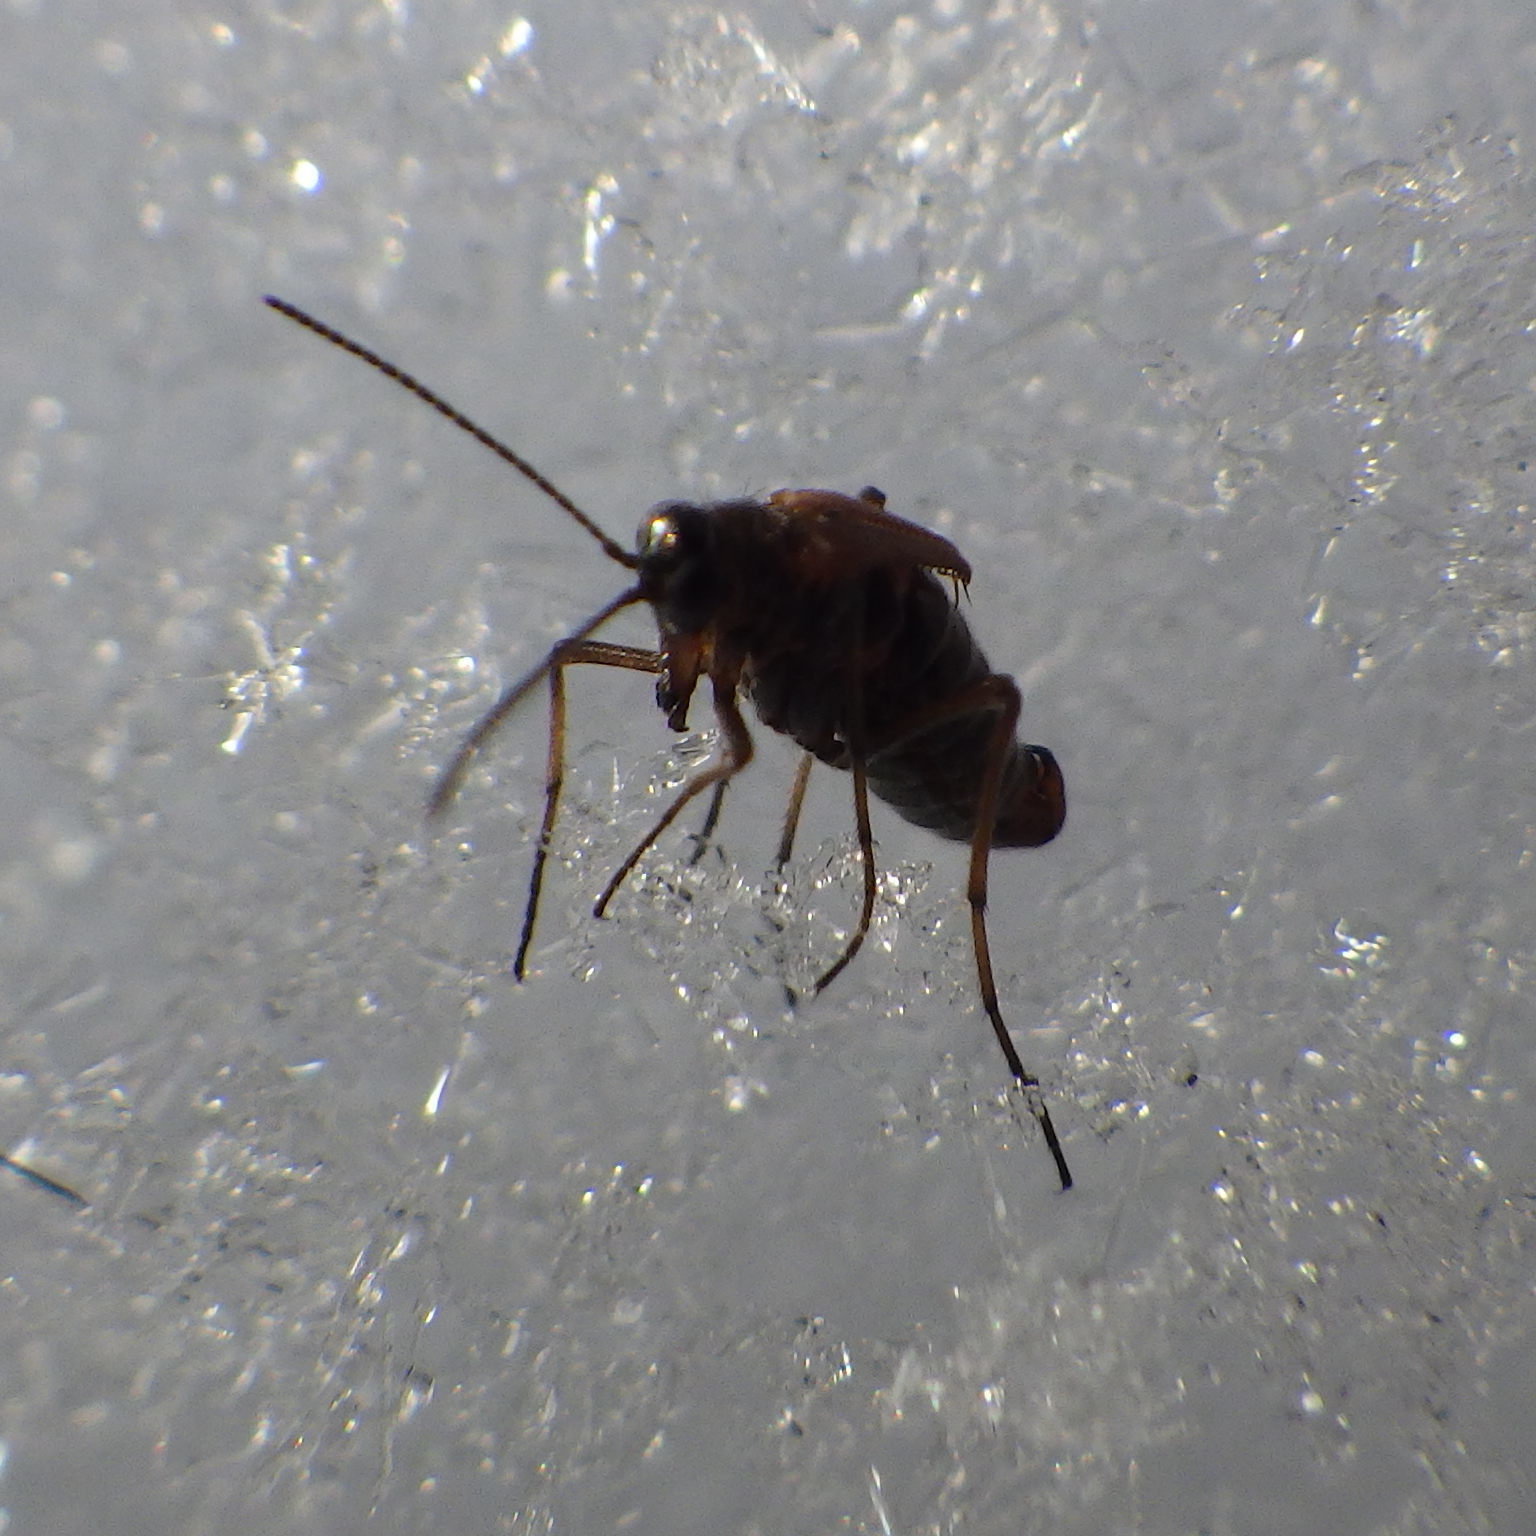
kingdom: Animalia
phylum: Arthropoda
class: Insecta
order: Mecoptera
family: Boreidae
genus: Boreus
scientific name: Boreus nivoriundus
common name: Snow-born boreus
